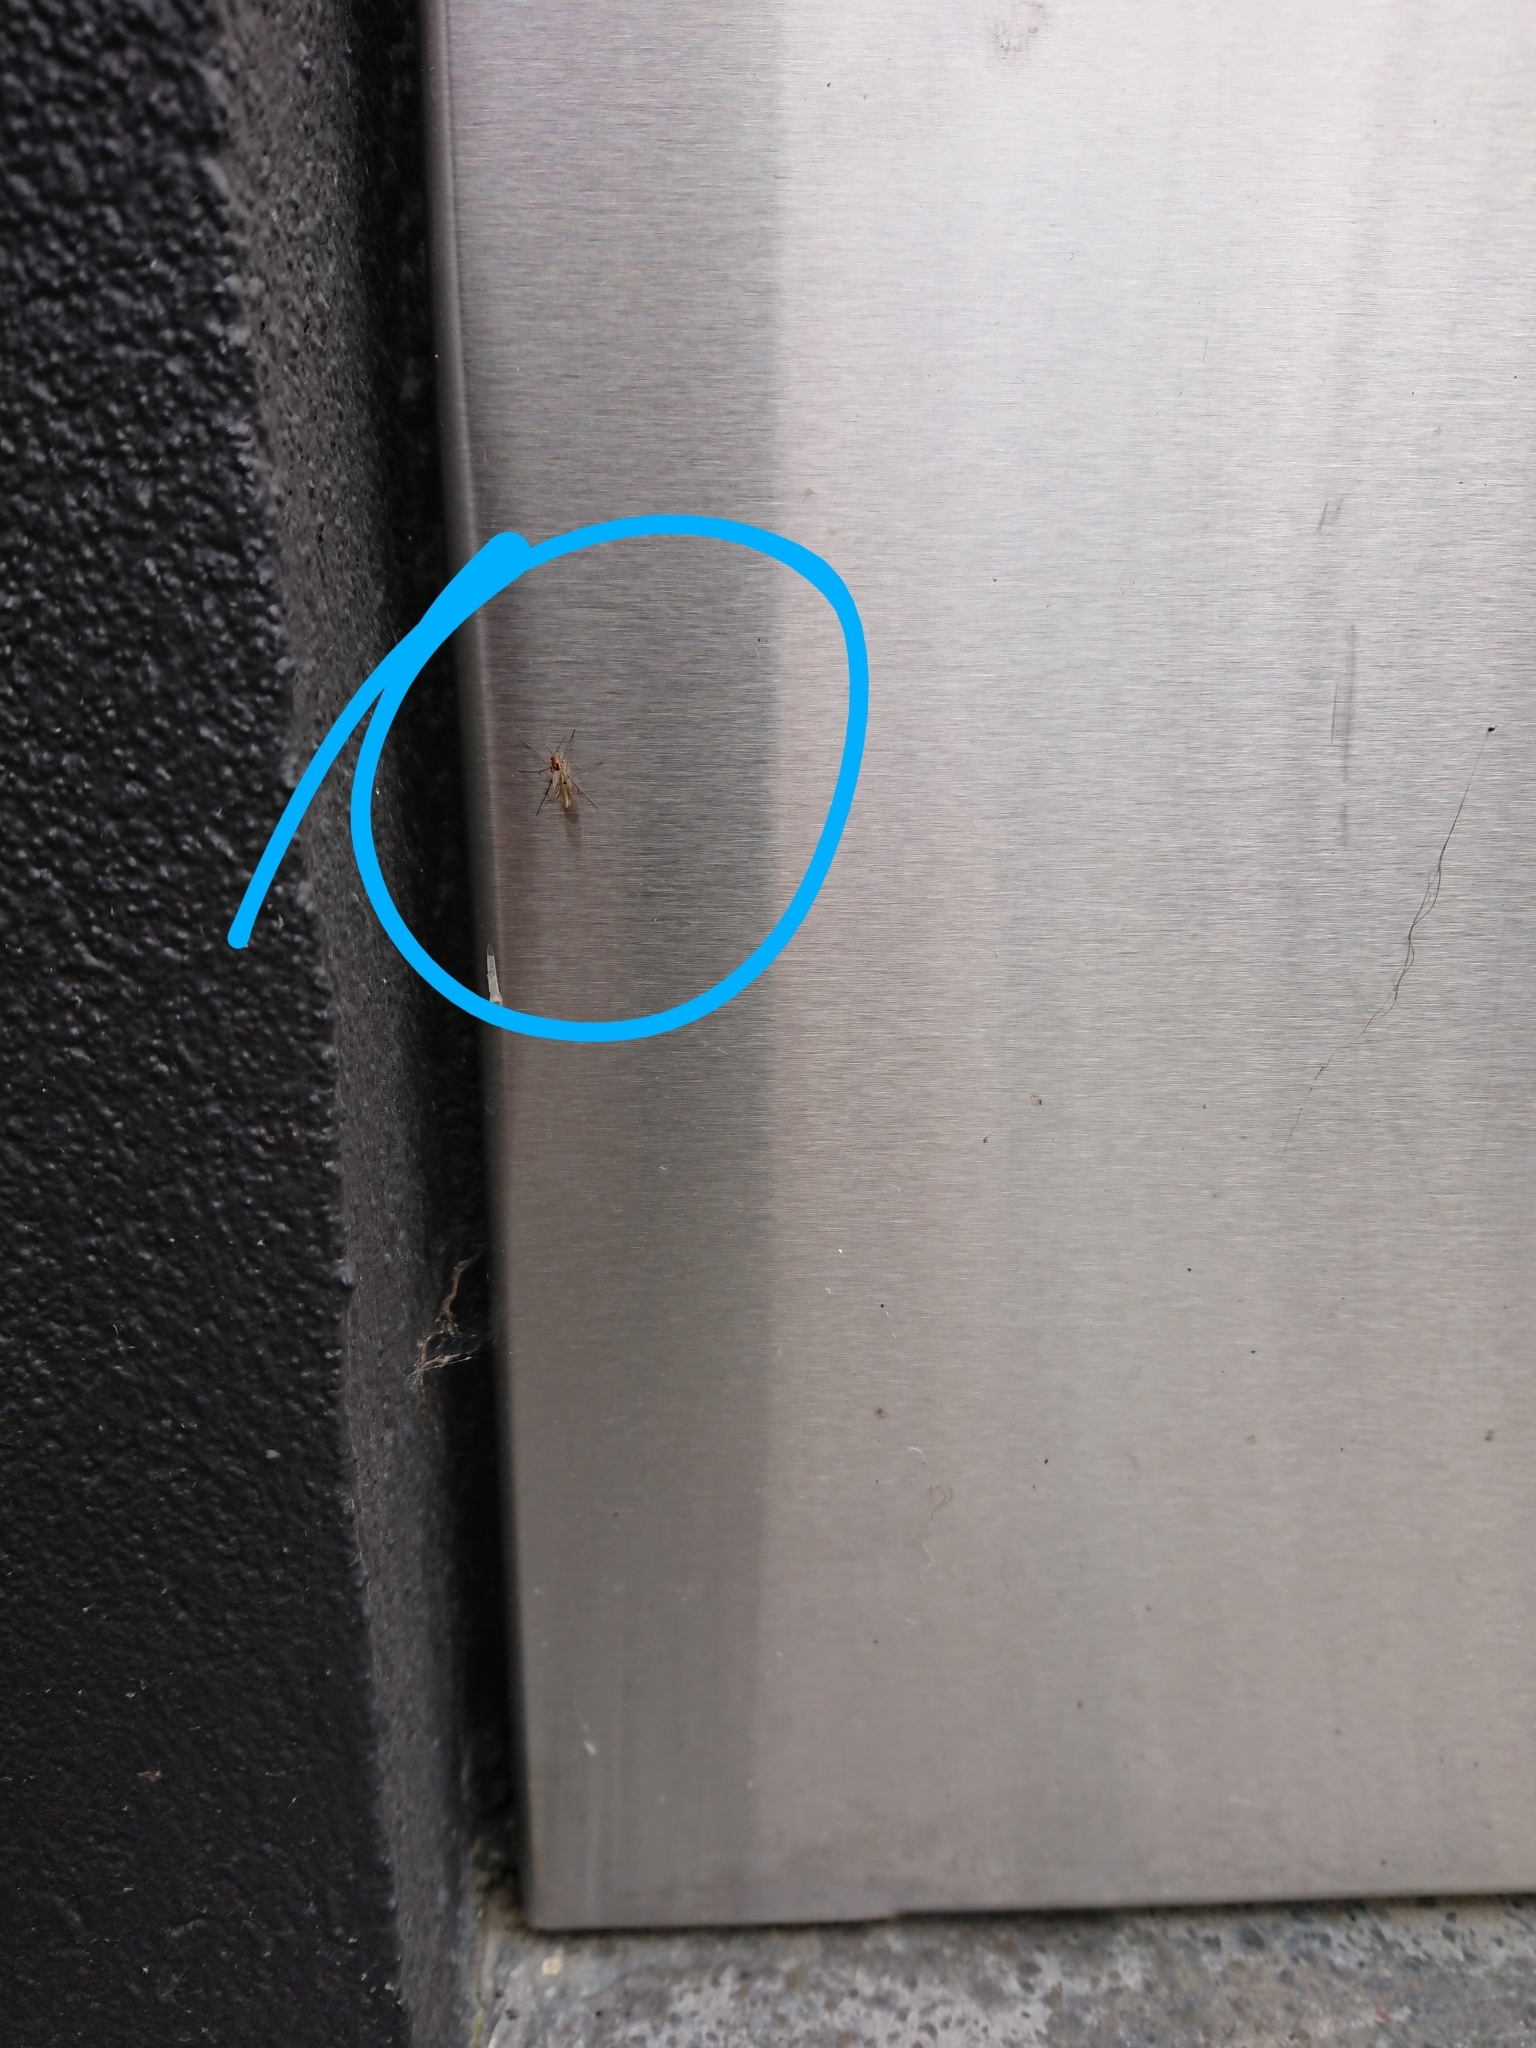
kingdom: Animalia
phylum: Arthropoda
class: Insecta
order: Diptera
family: Mycetophilidae
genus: Mycetophila
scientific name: Mycetophila marginepunctata
